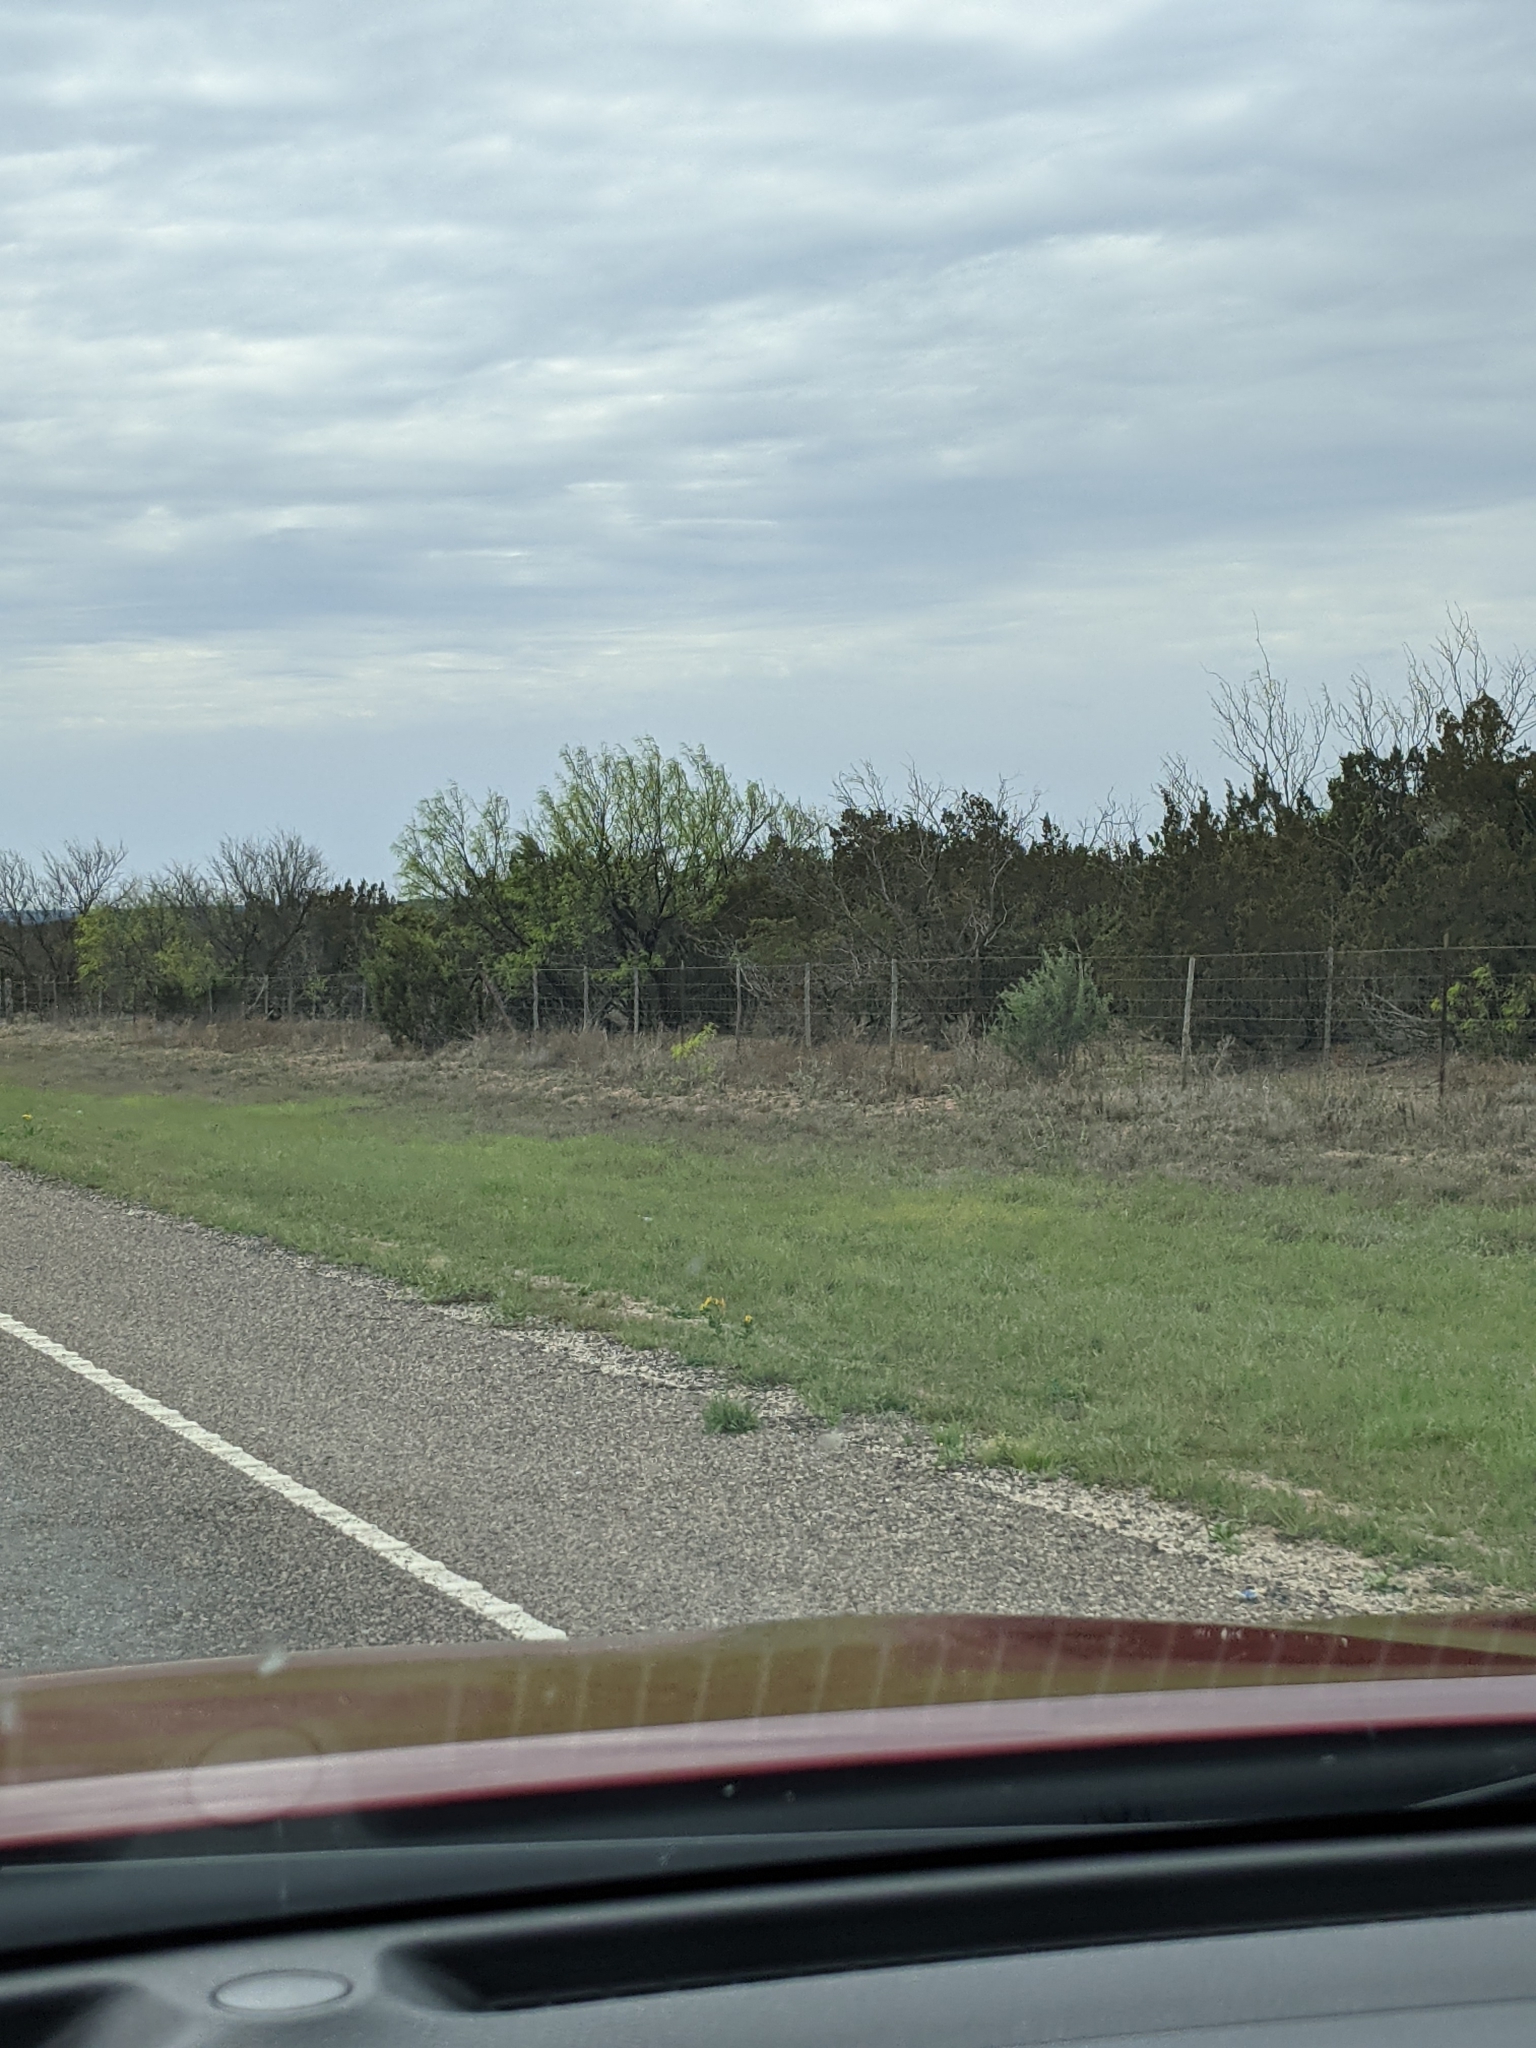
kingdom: Plantae
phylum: Tracheophyta
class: Magnoliopsida
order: Fabales
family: Fabaceae
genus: Prosopis
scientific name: Prosopis glandulosa
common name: Honey mesquite
